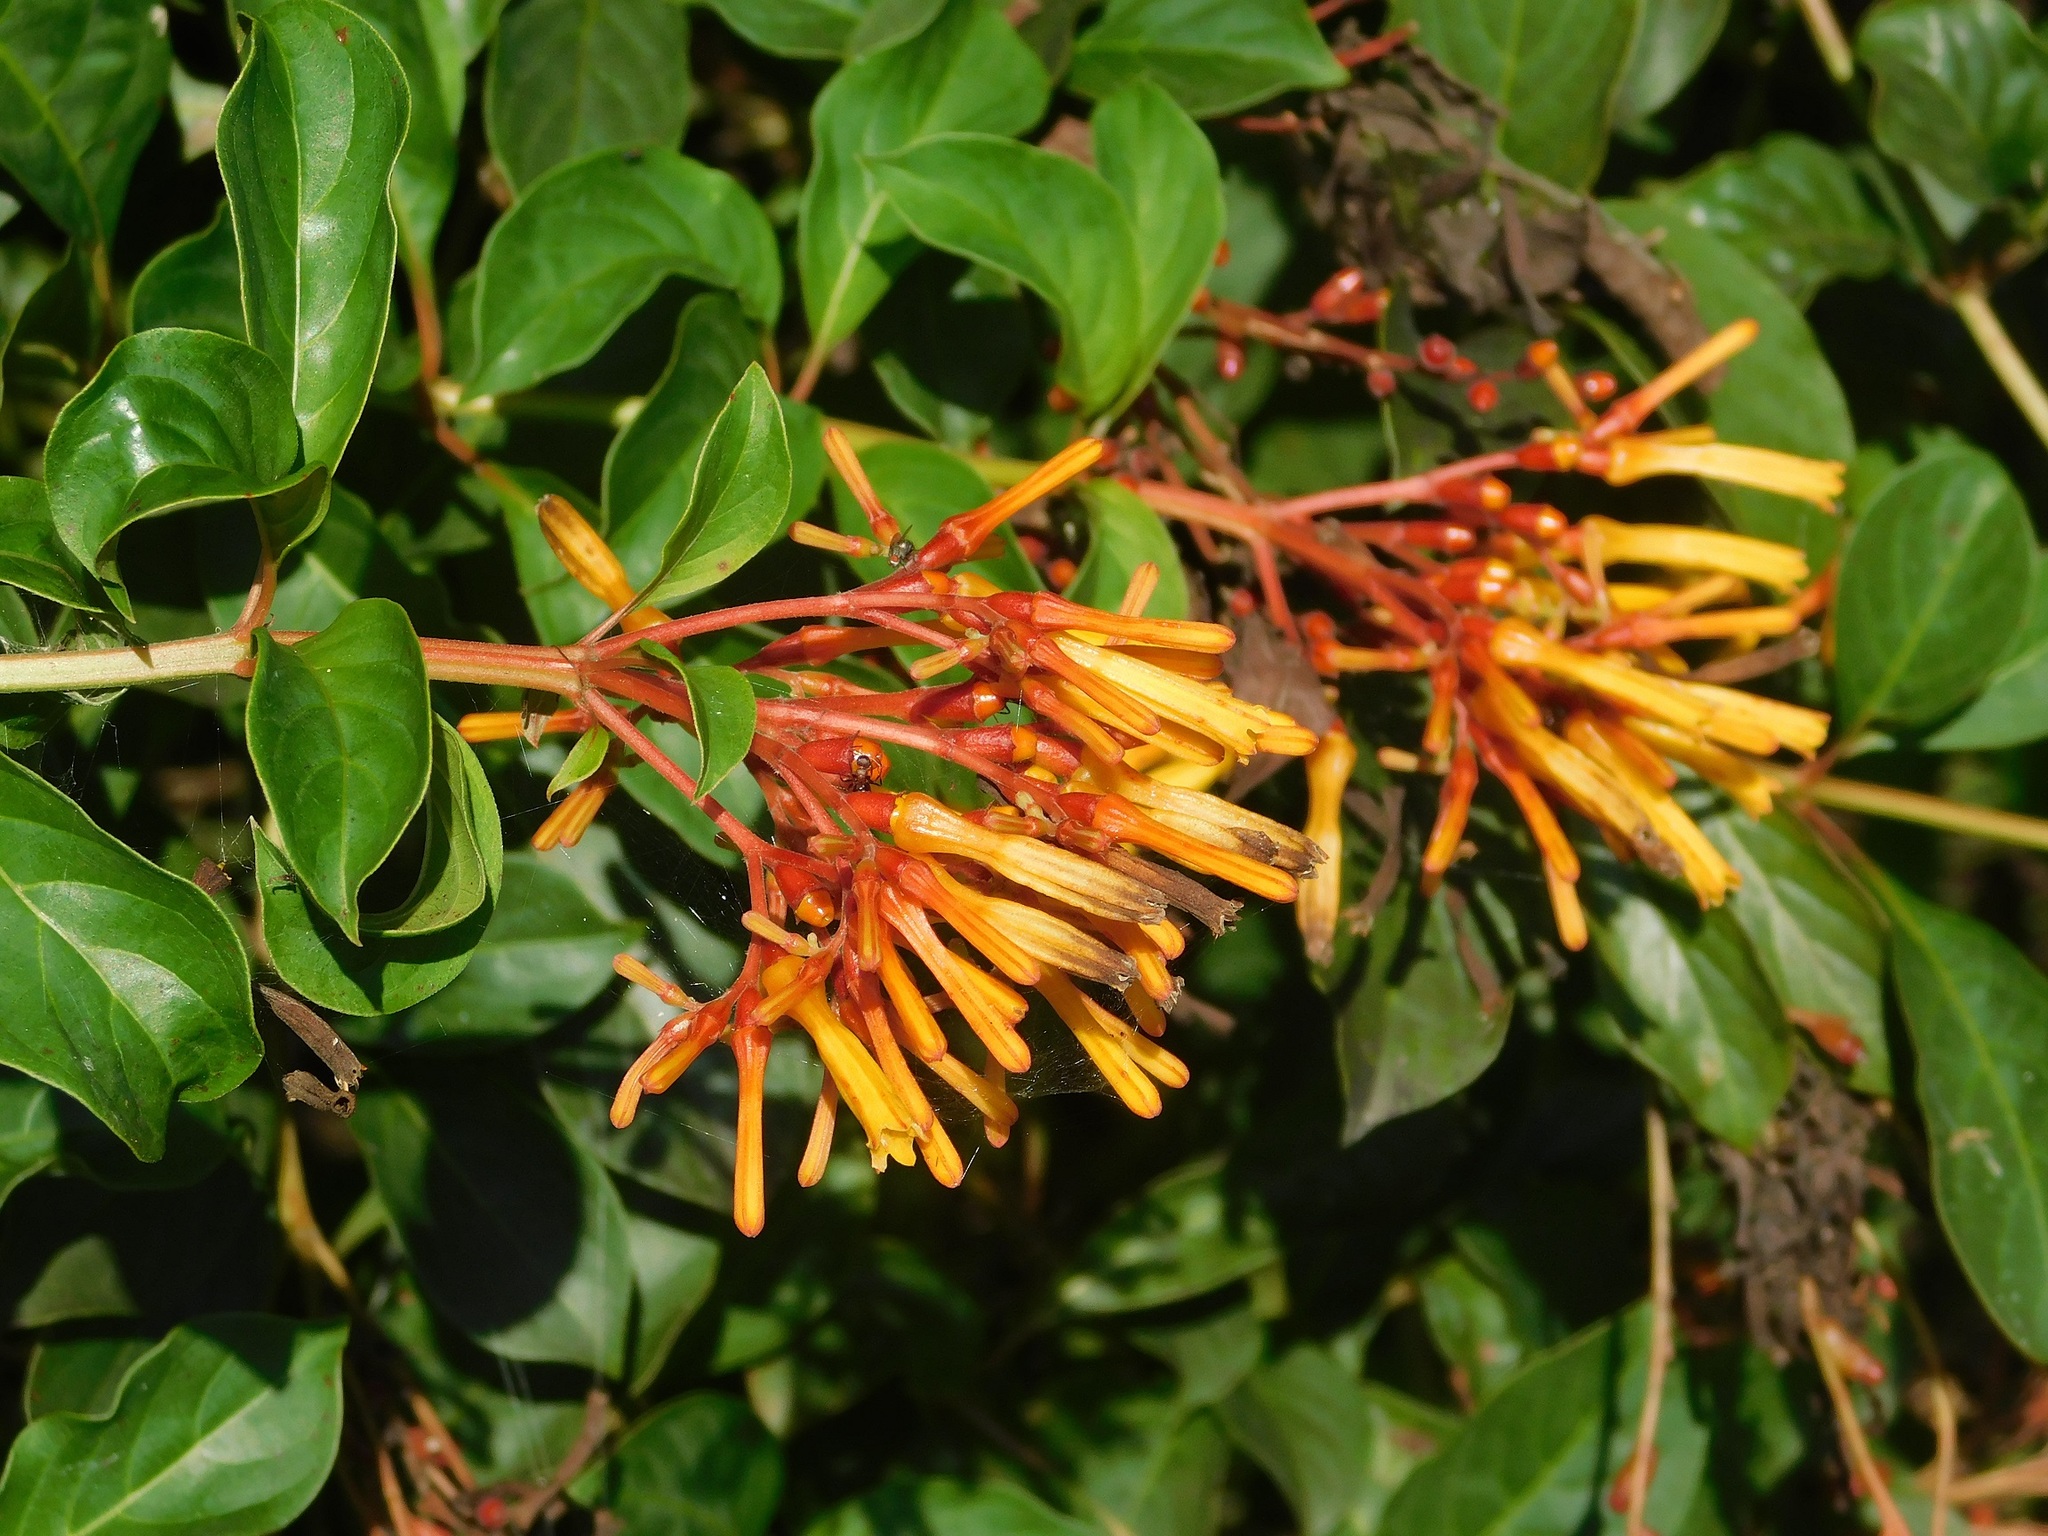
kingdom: Plantae
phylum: Tracheophyta
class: Magnoliopsida
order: Gentianales
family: Rubiaceae
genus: Hamelia
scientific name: Hamelia patens
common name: Redhead
